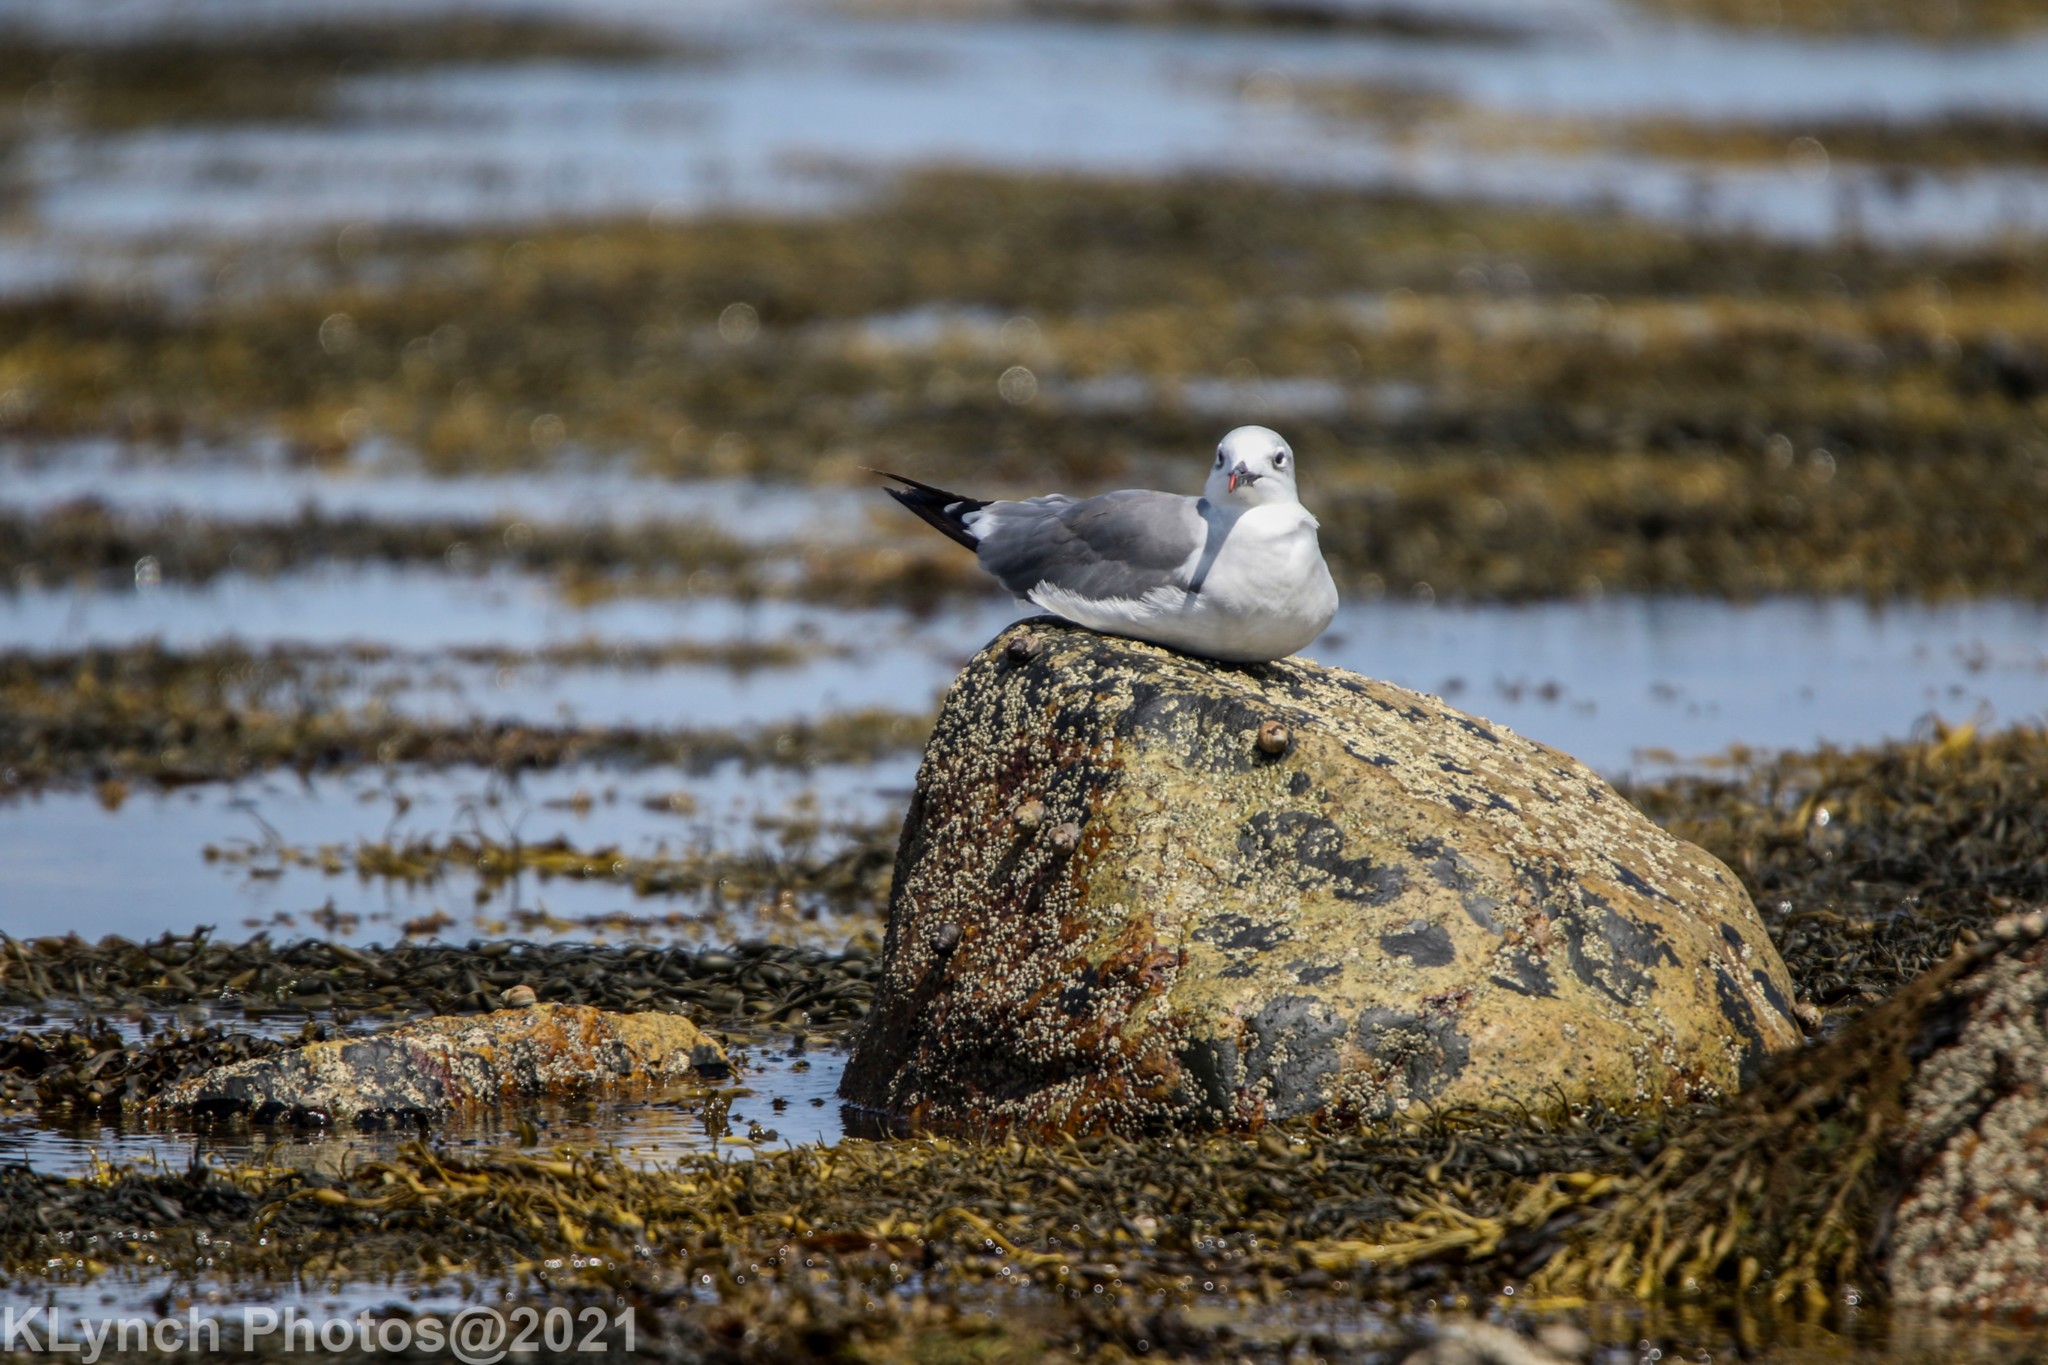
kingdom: Animalia
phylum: Chordata
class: Aves
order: Charadriiformes
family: Laridae
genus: Leucophaeus
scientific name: Leucophaeus atricilla
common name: Laughing gull
